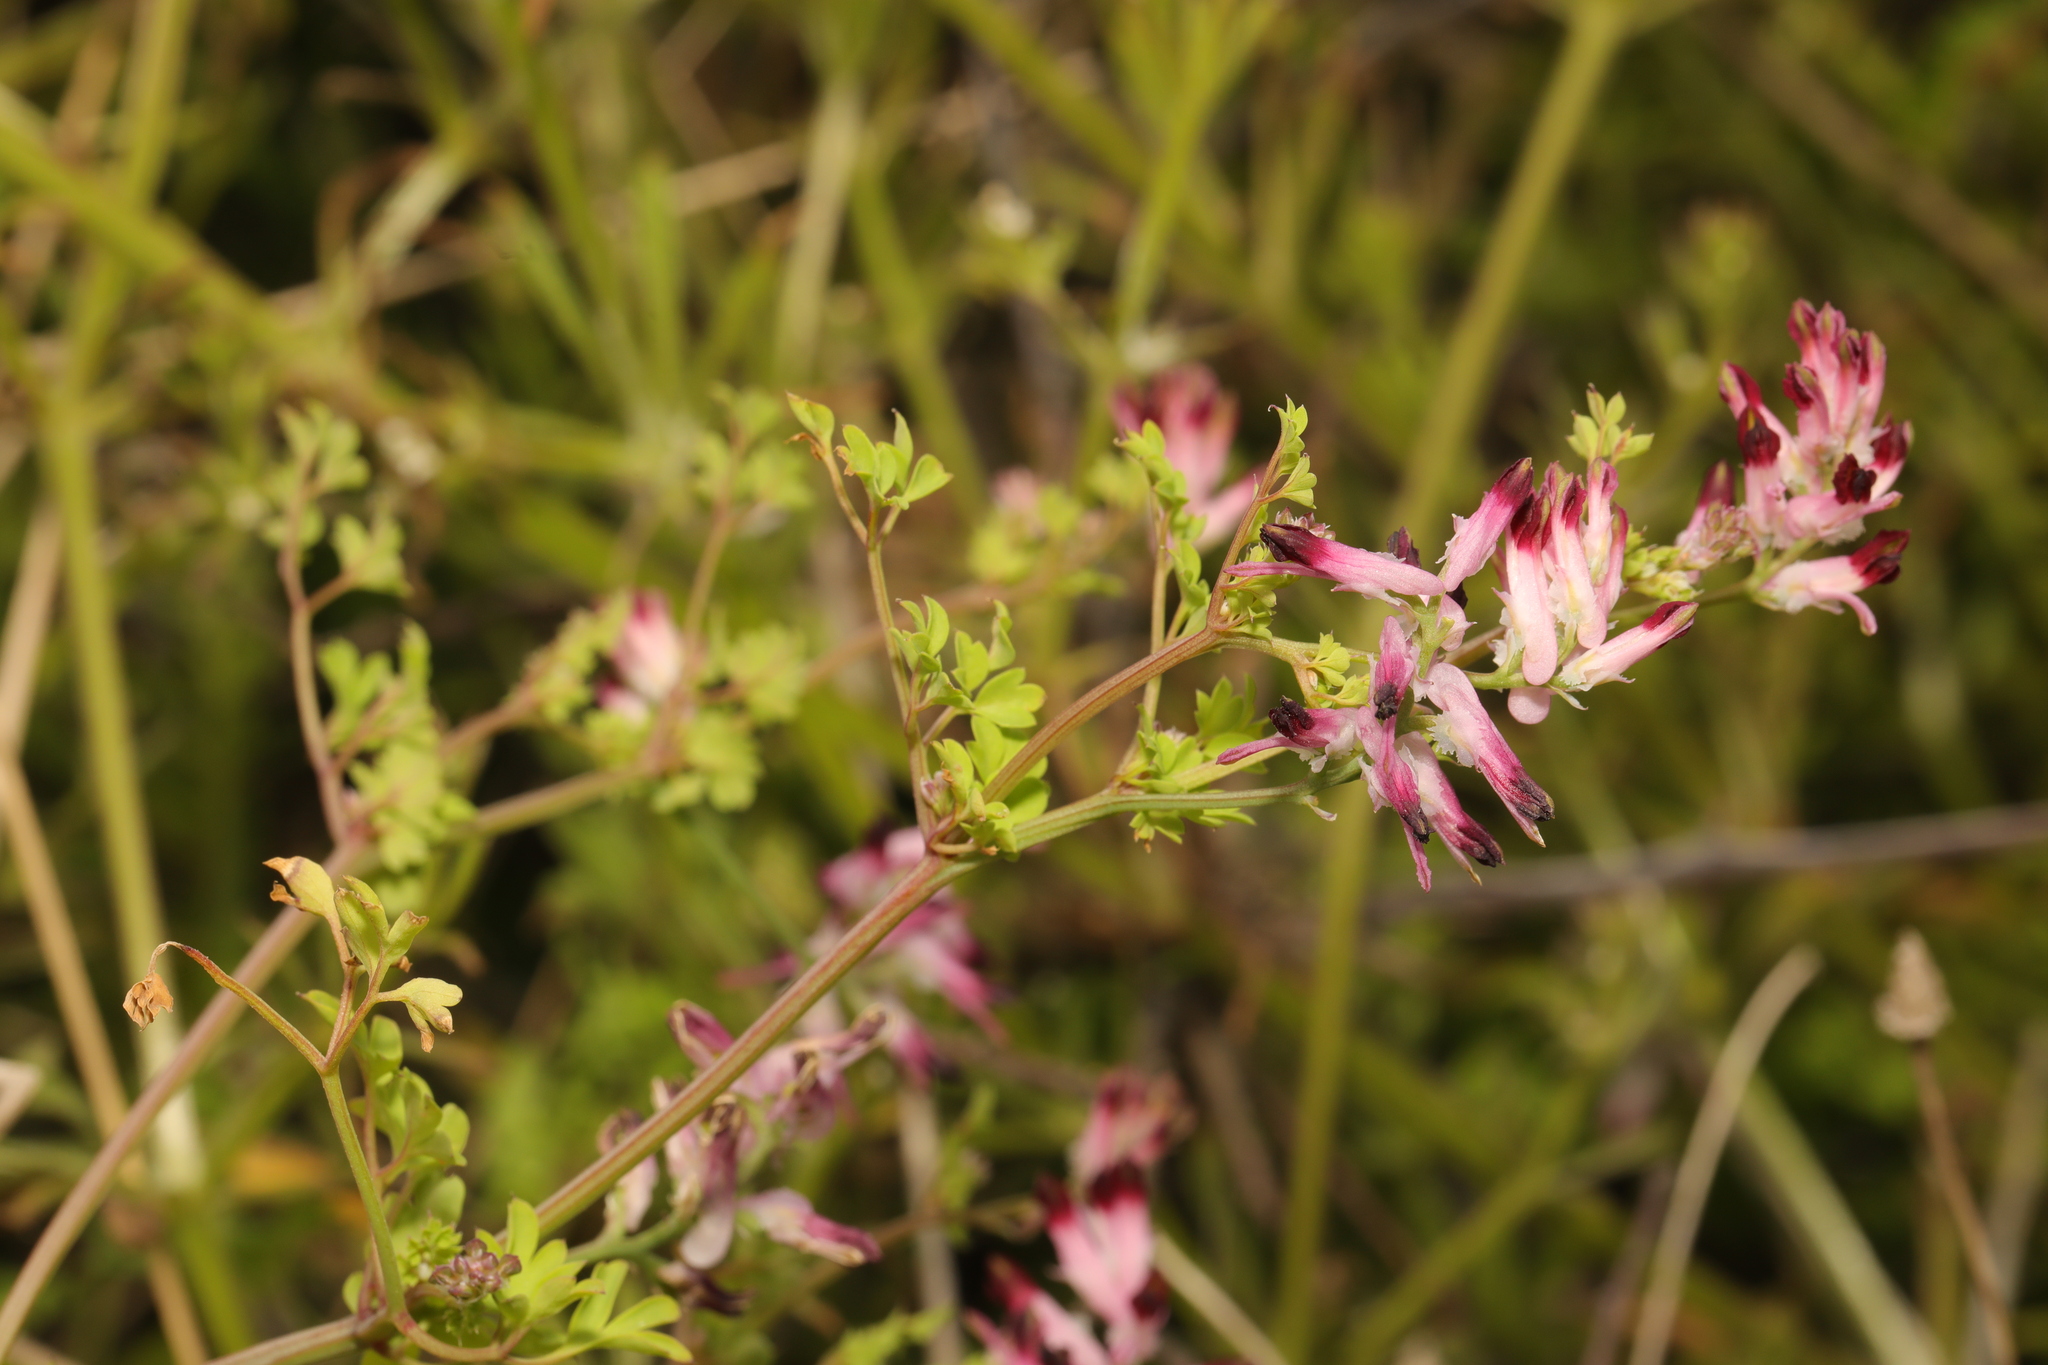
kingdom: Plantae
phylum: Tracheophyta
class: Magnoliopsida
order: Ranunculales
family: Papaveraceae
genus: Fumaria
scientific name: Fumaria muralis
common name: Common ramping-fumitory
